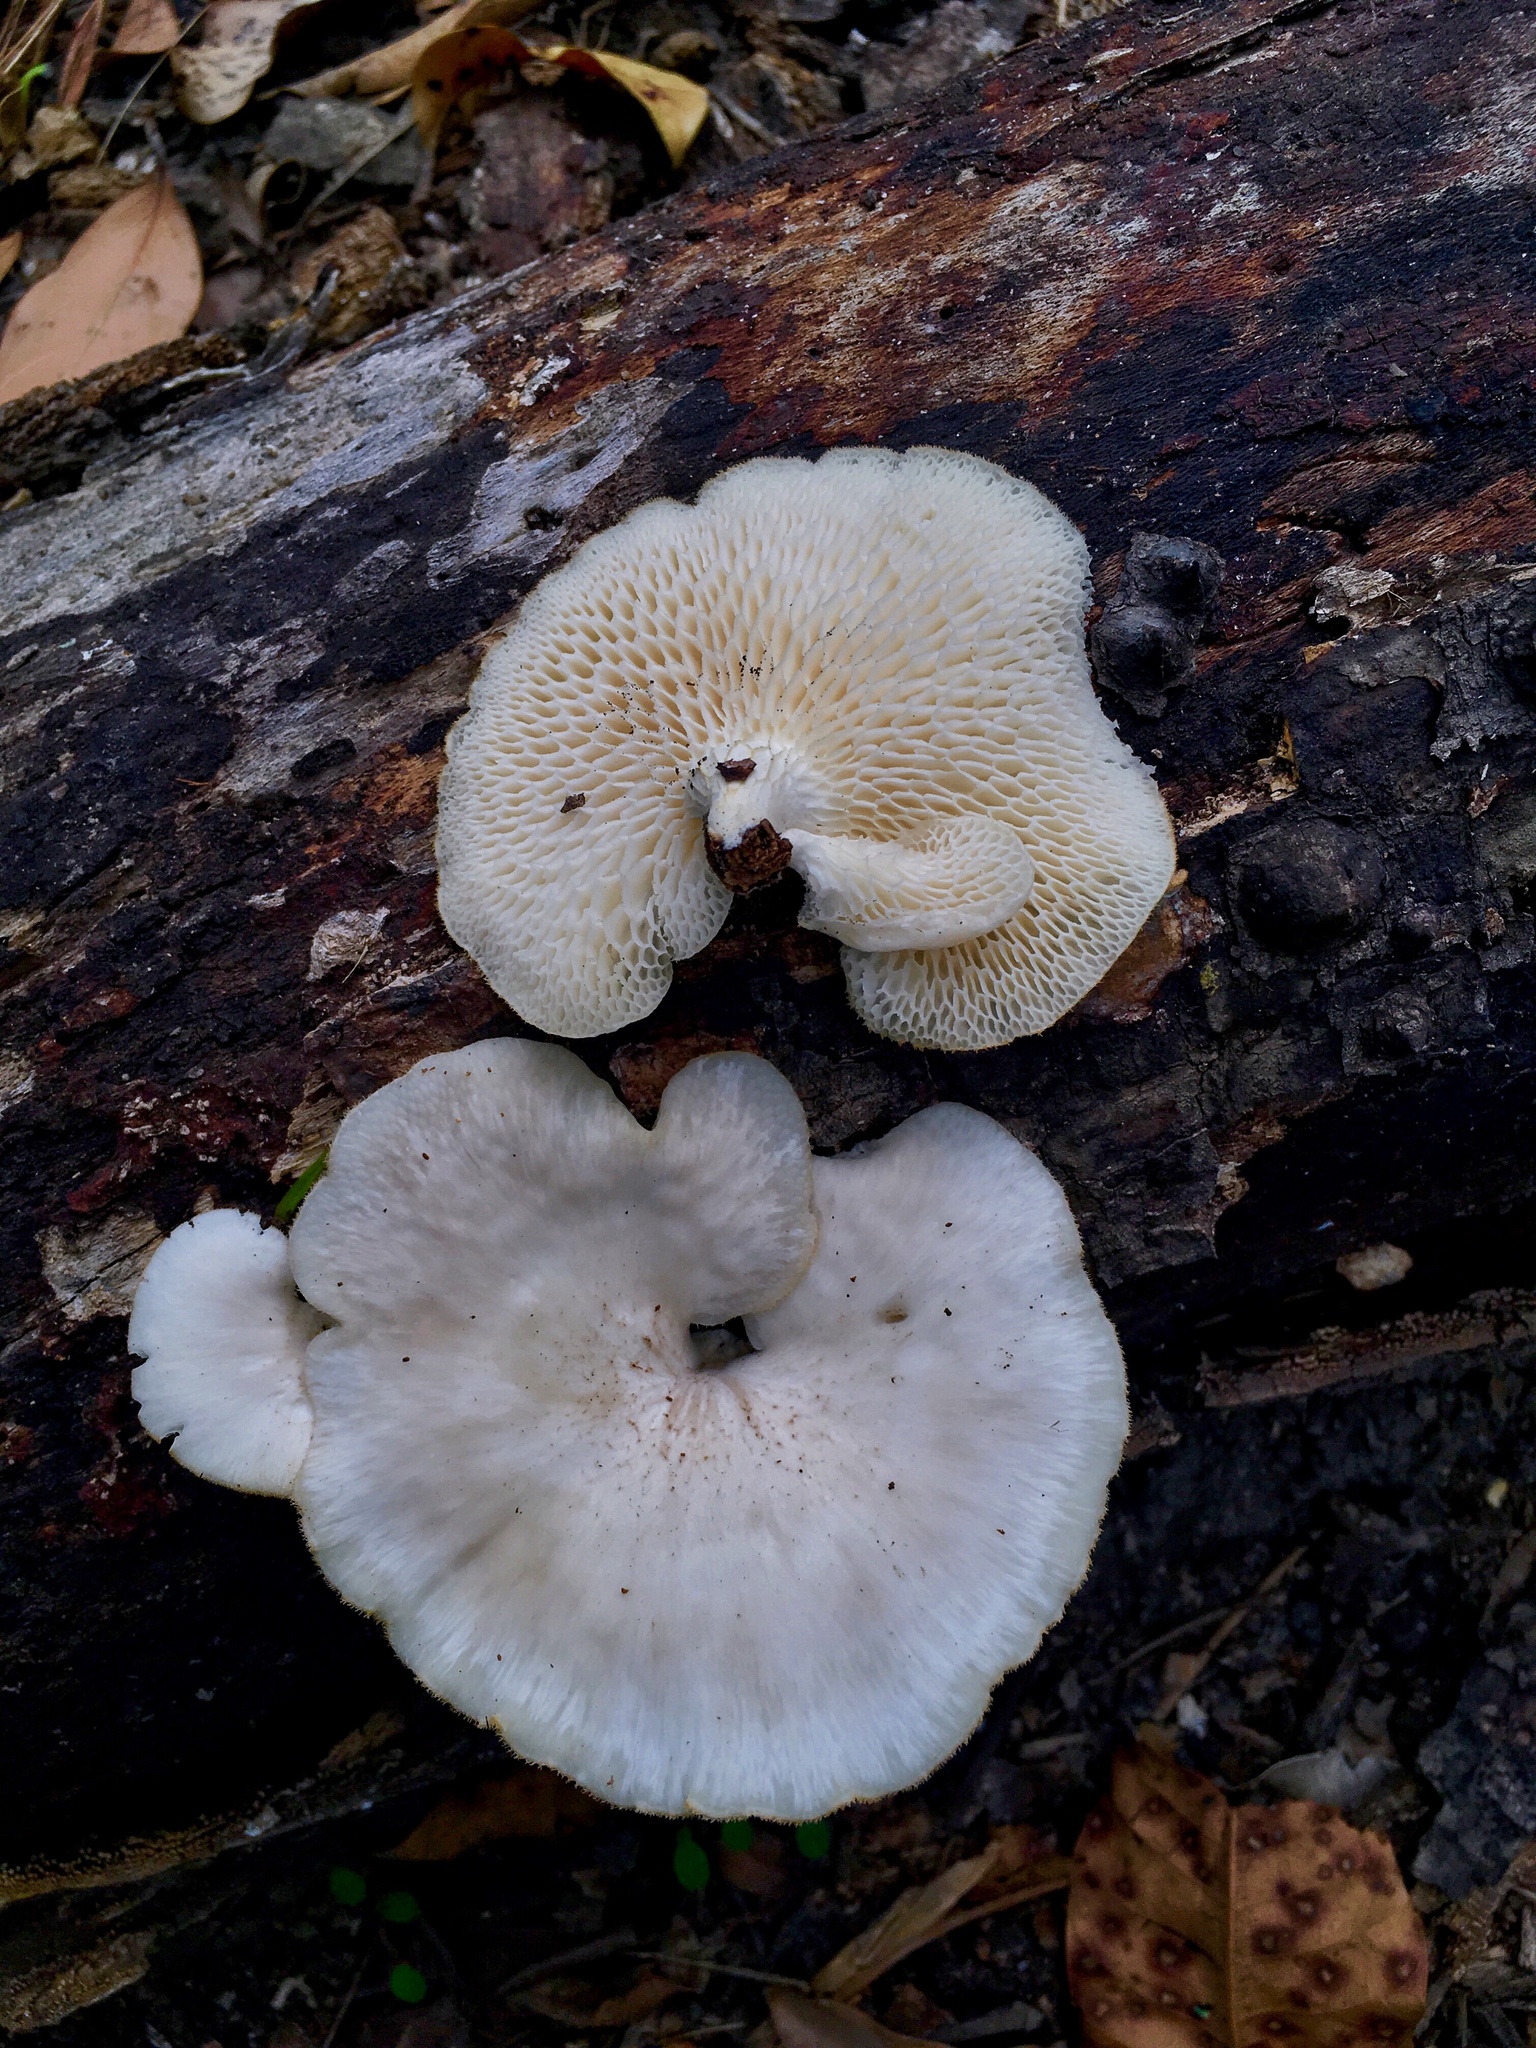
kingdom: Fungi
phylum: Basidiomycota
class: Agaricomycetes
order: Polyporales
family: Polyporaceae
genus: Favolus
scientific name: Favolus tenuiculus
